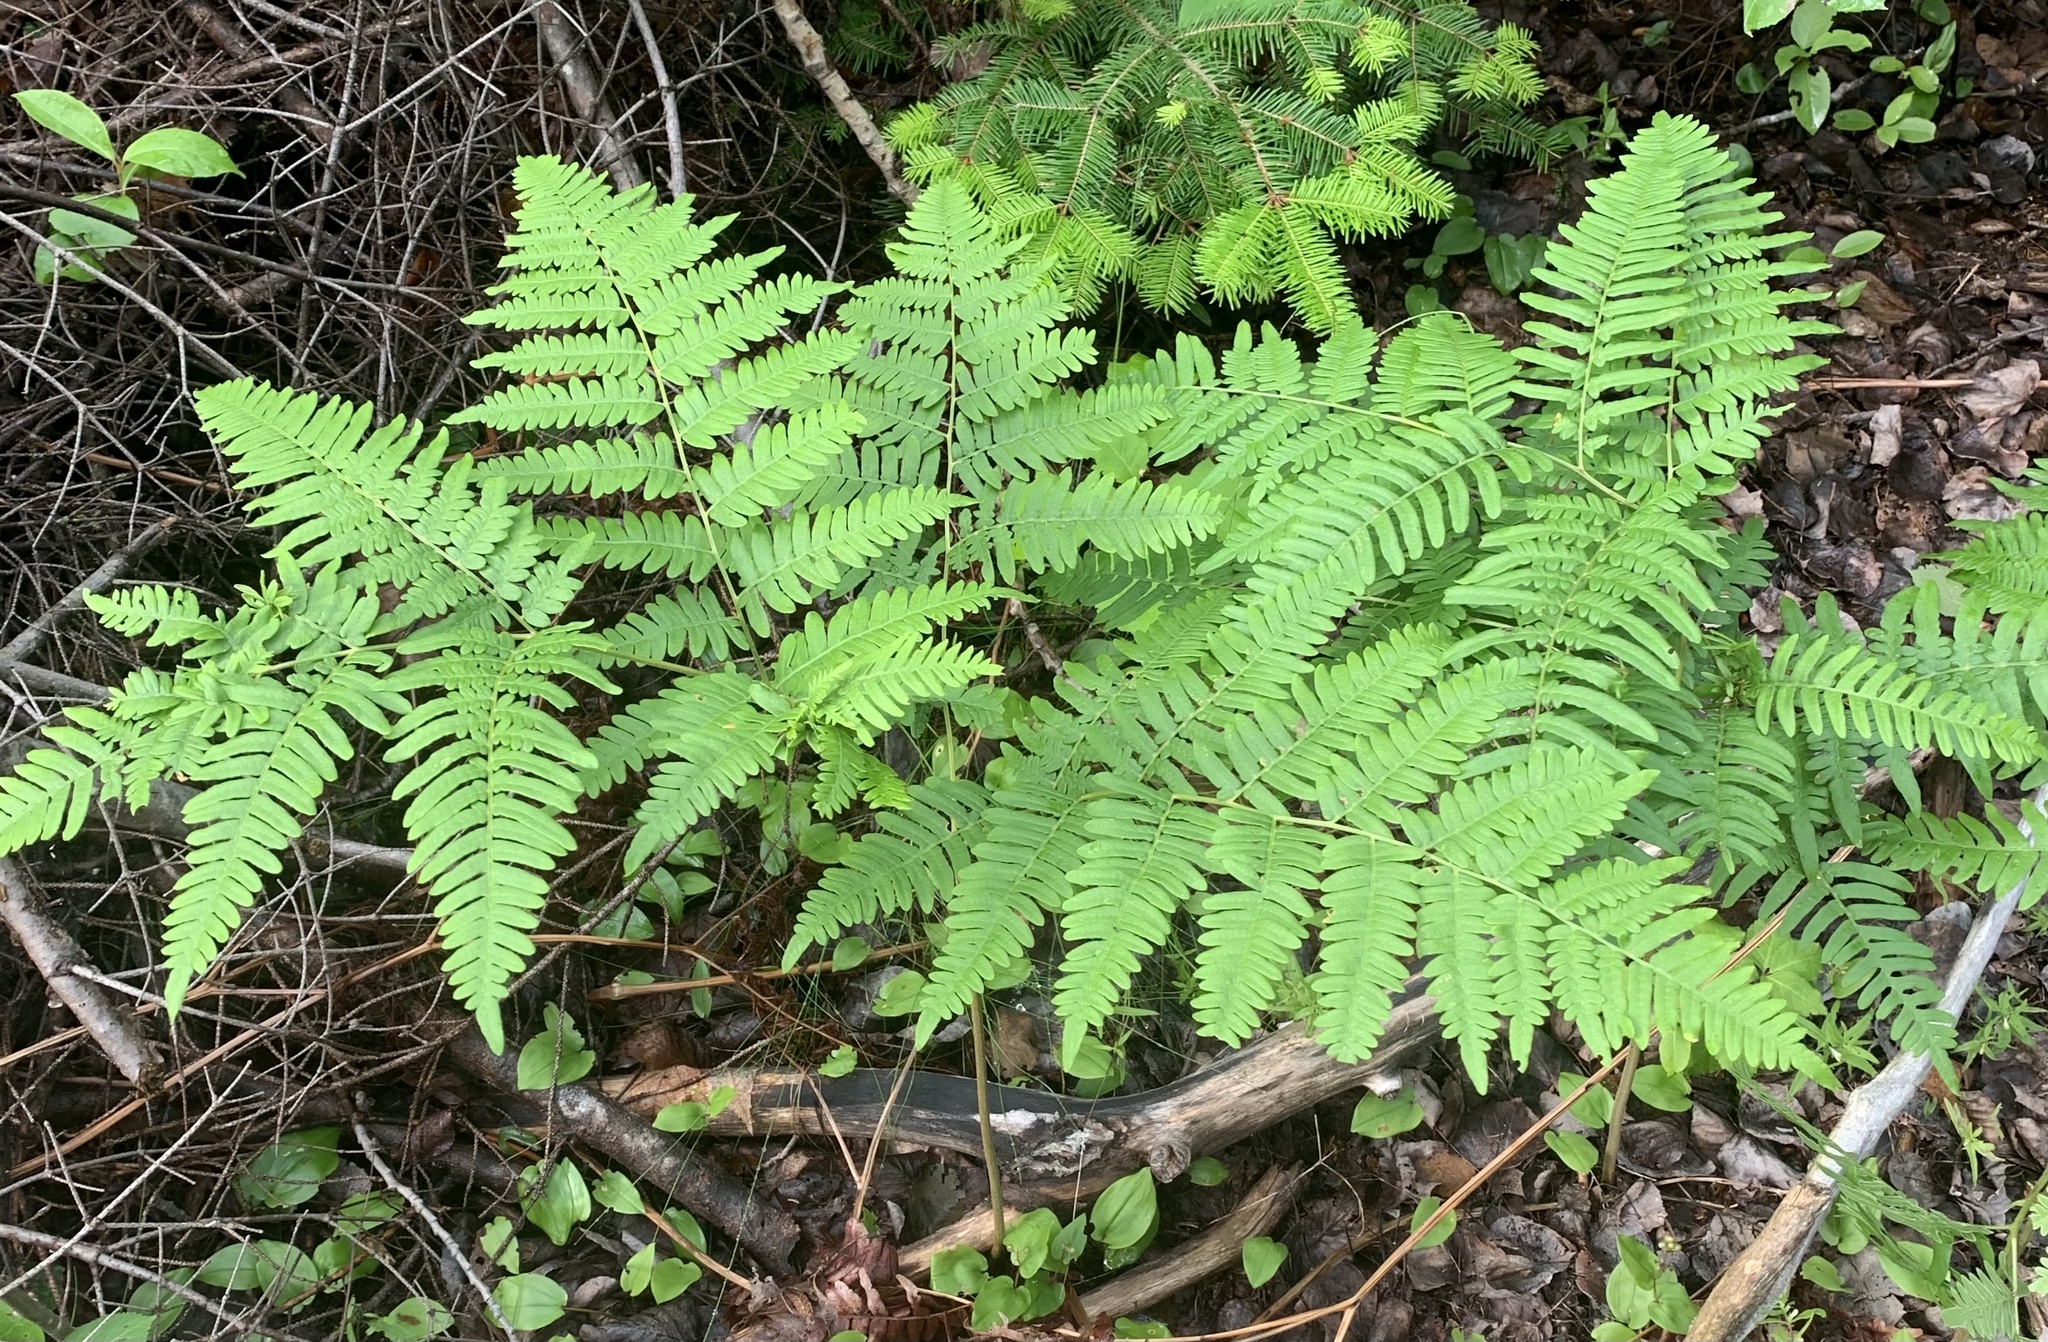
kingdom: Plantae
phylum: Tracheophyta
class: Polypodiopsida
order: Polypodiales
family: Dennstaedtiaceae
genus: Pteridium
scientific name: Pteridium aquilinum
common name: Bracken
